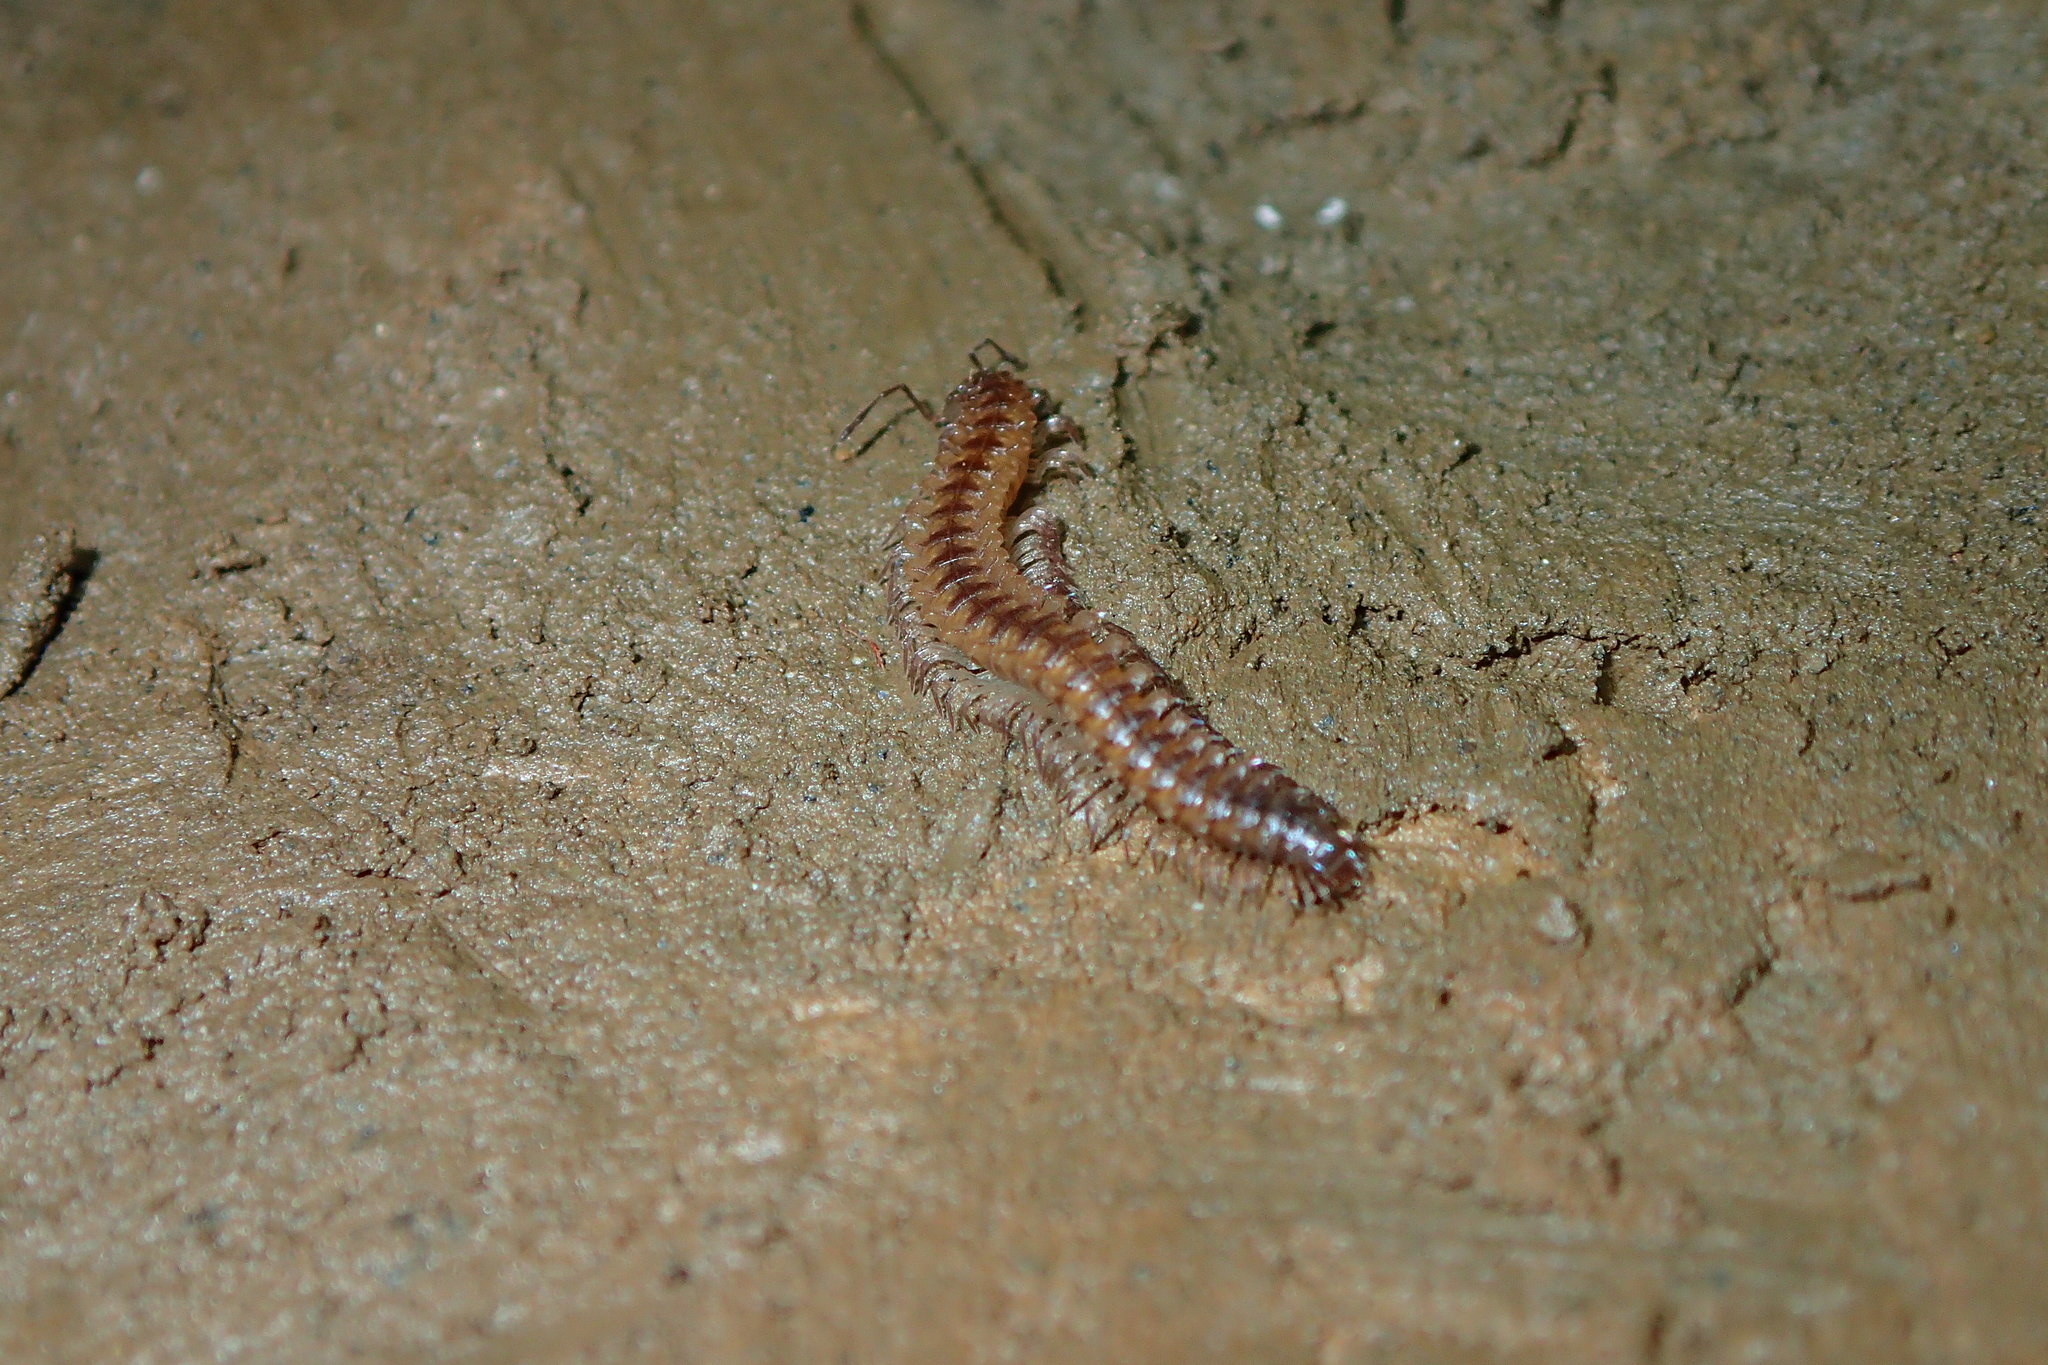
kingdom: Animalia
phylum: Arthropoda
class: Diplopoda
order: Chordeumatida
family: Craspedosomatidae
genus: Nanogona
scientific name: Nanogona polydesmoides
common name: Eyed flat-backed millipede
